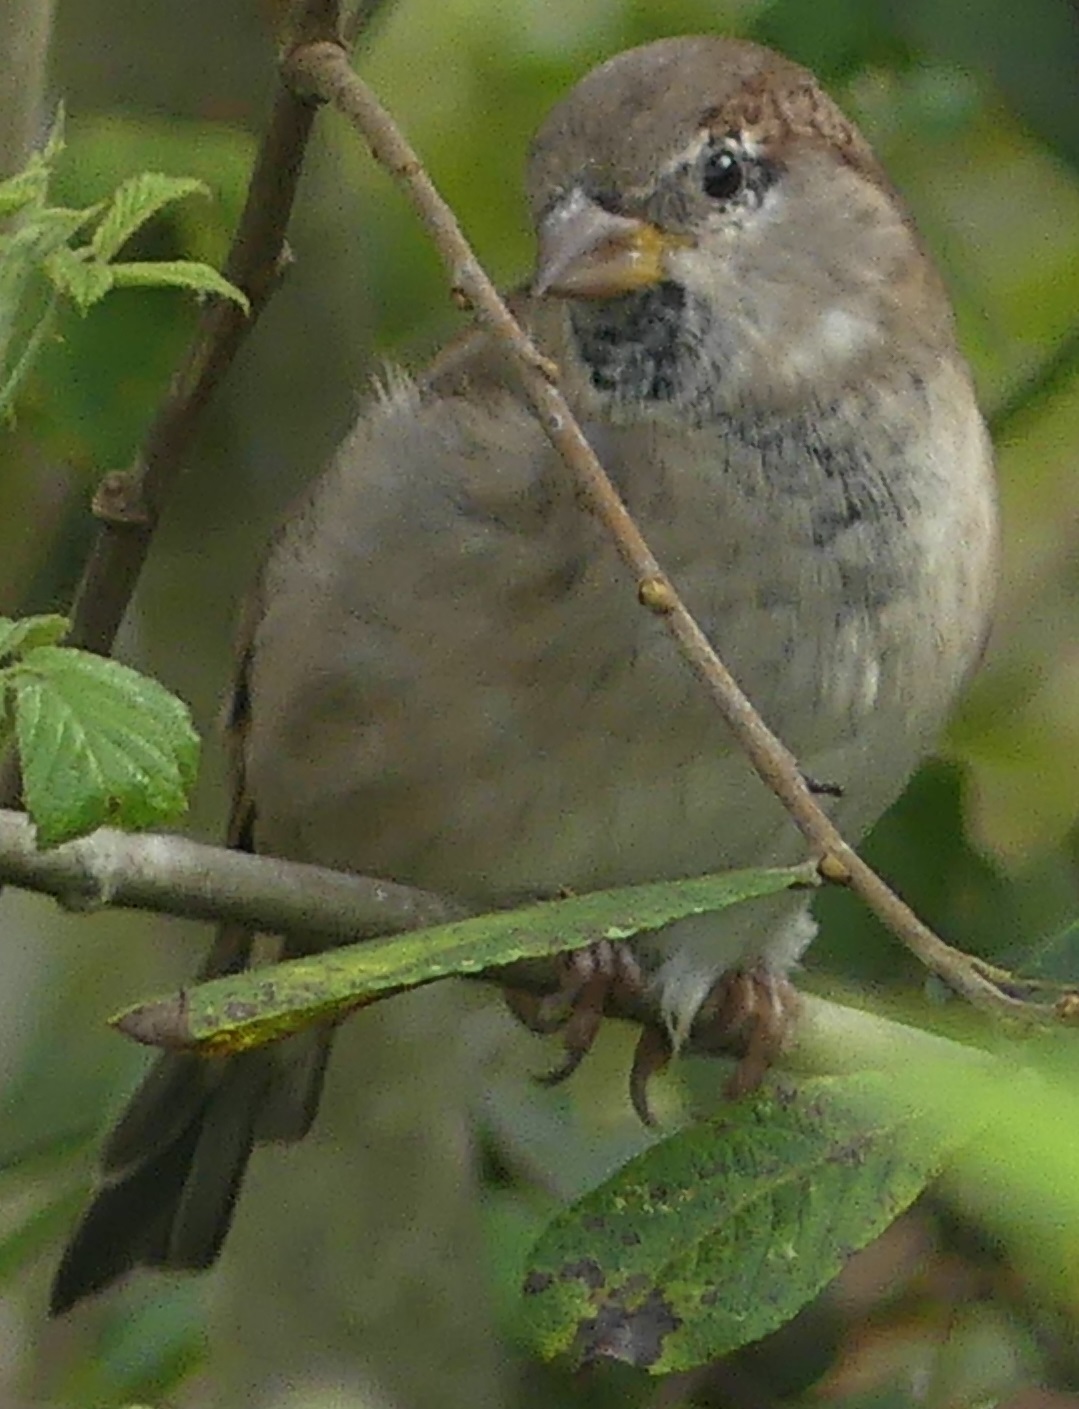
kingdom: Animalia
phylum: Chordata
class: Aves
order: Passeriformes
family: Passeridae
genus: Passer
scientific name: Passer domesticus
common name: House sparrow
